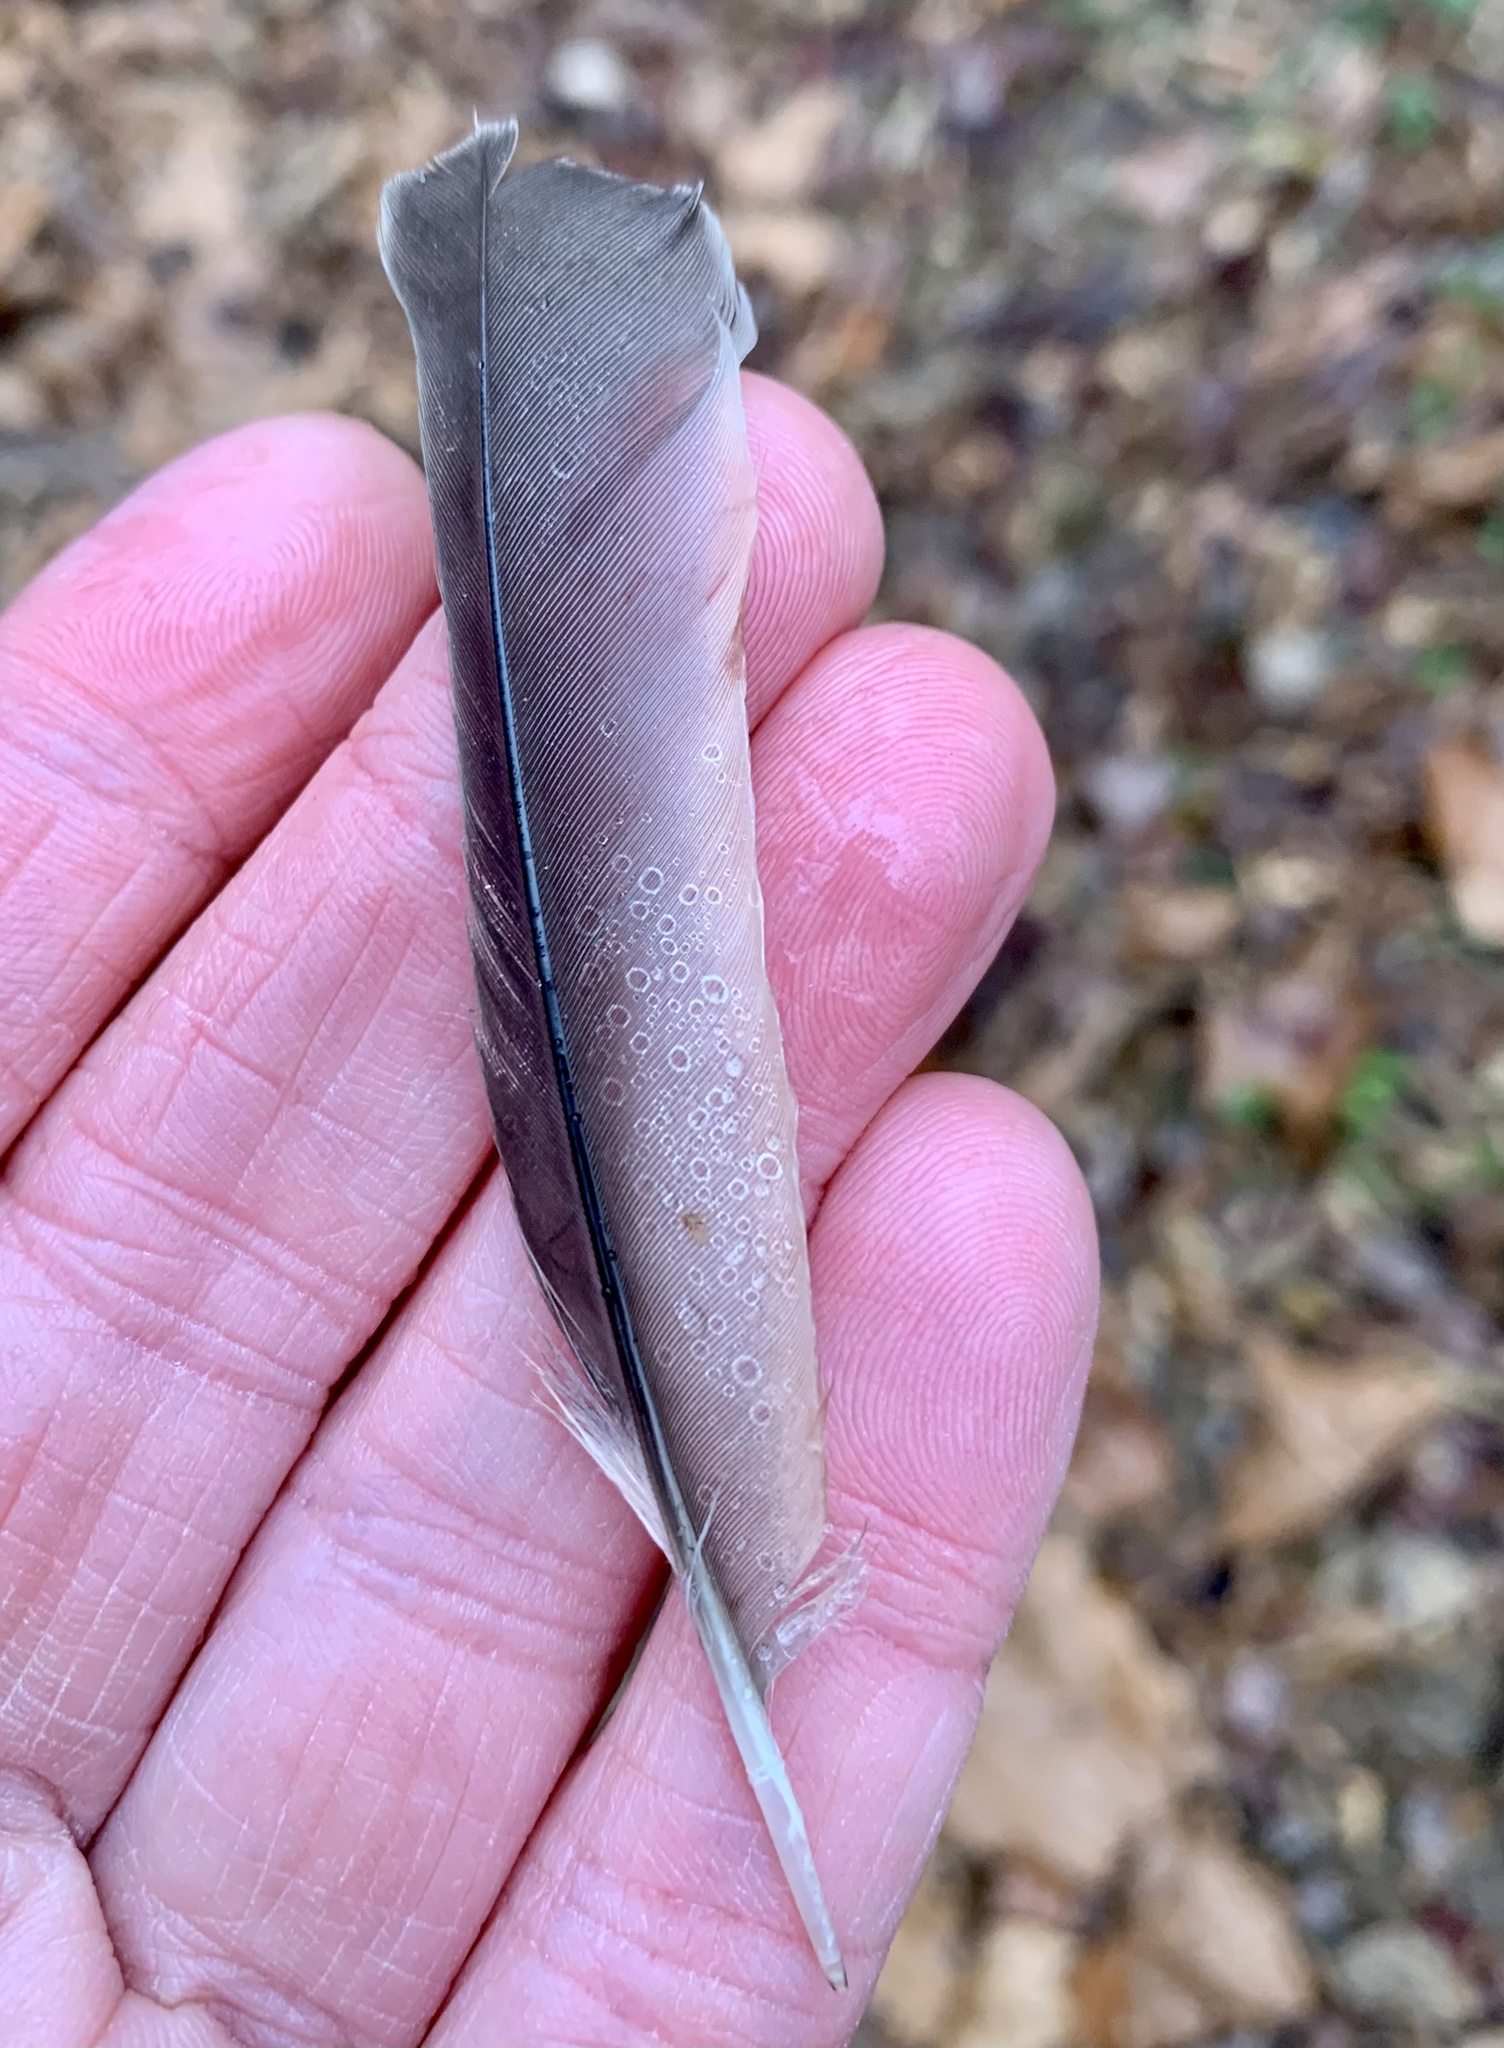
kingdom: Animalia
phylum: Chordata
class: Aves
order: Passeriformes
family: Turdidae
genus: Turdus
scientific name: Turdus migratorius
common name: American robin
